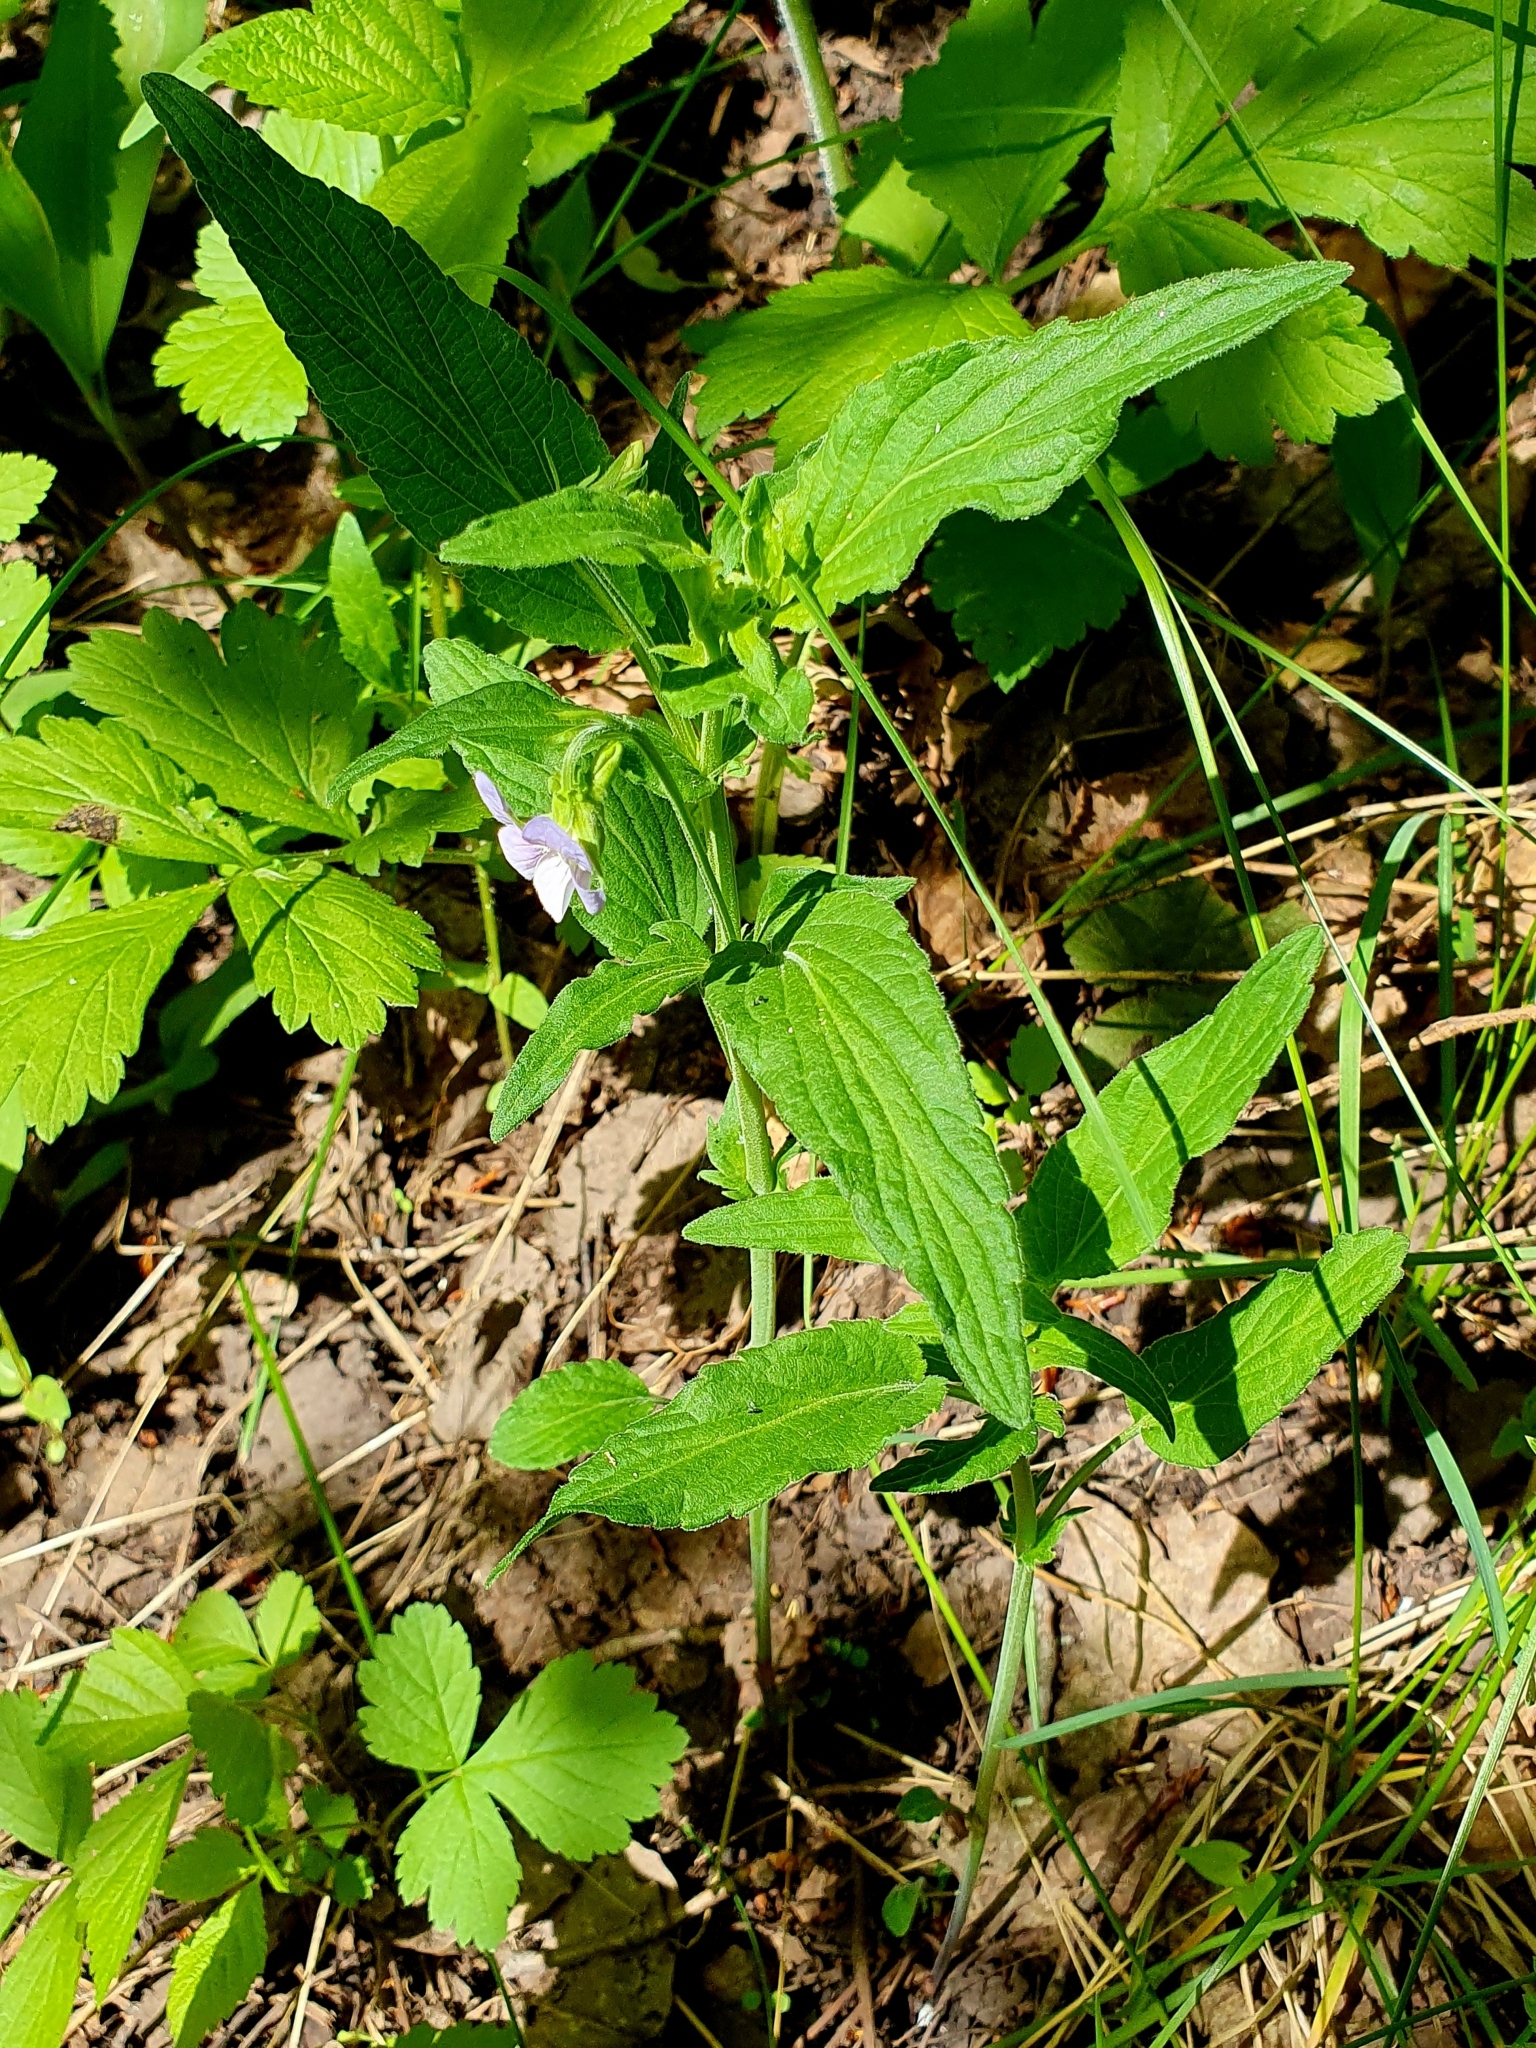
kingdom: Plantae
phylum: Tracheophyta
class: Magnoliopsida
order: Malpighiales
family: Violaceae
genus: Viola
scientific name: Viola elatior
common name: Tall violet
